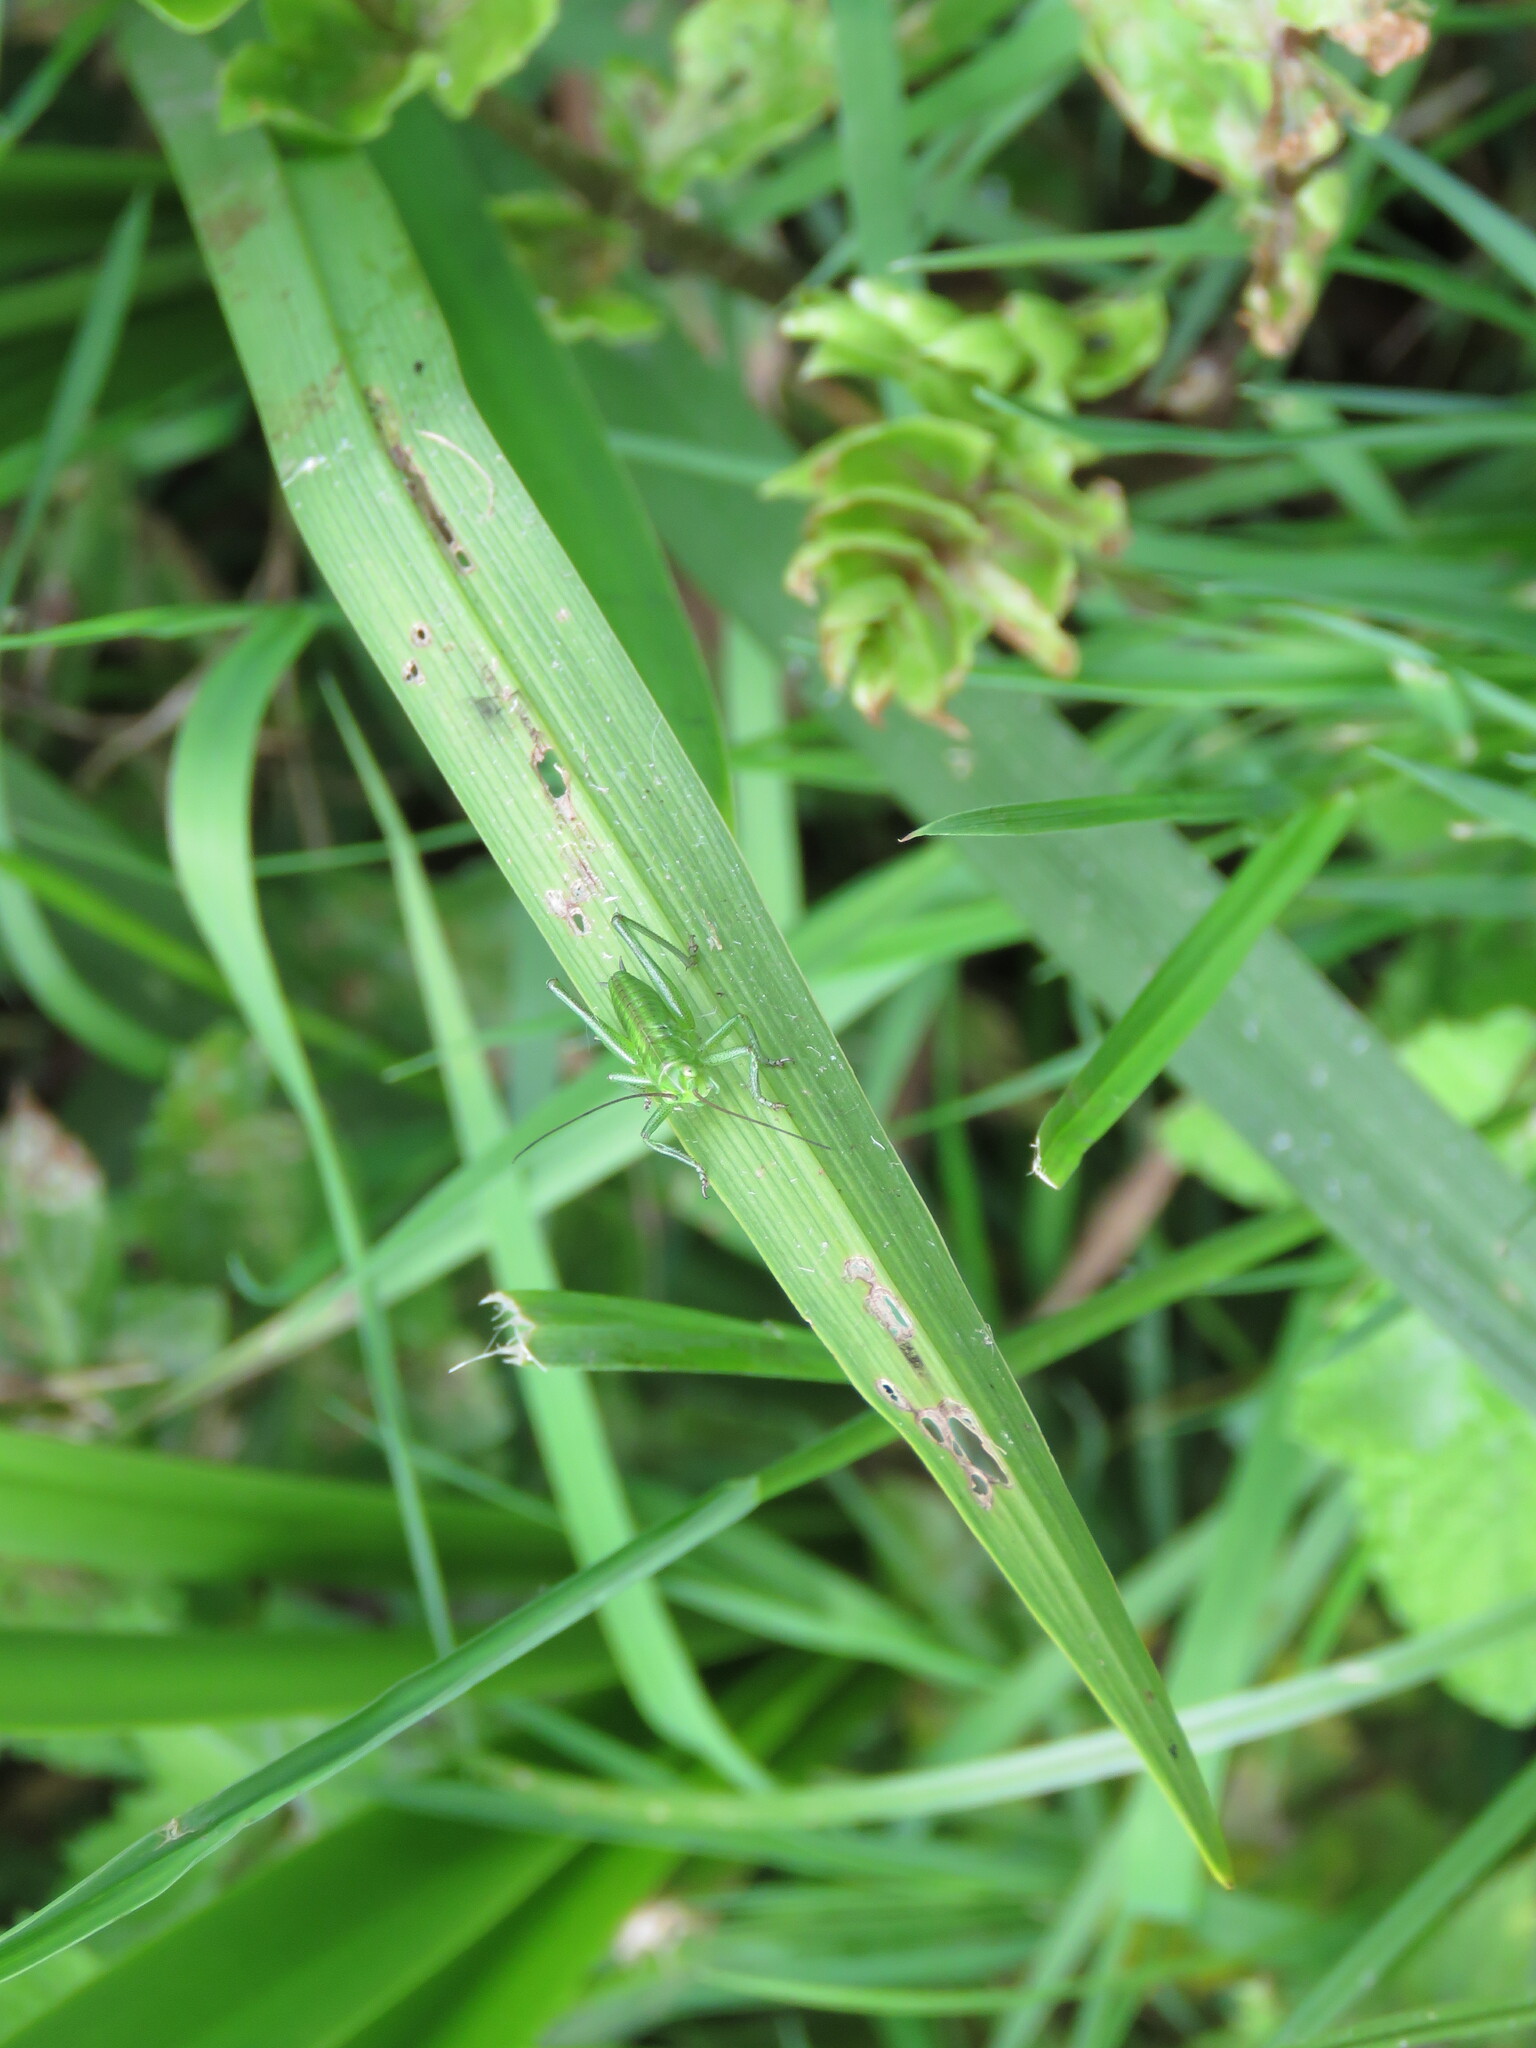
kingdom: Animalia
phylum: Arthropoda
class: Insecta
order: Orthoptera
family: Tettigoniidae
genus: Tettigonia
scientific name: Tettigonia viridissima
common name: Great green bush-cricket
